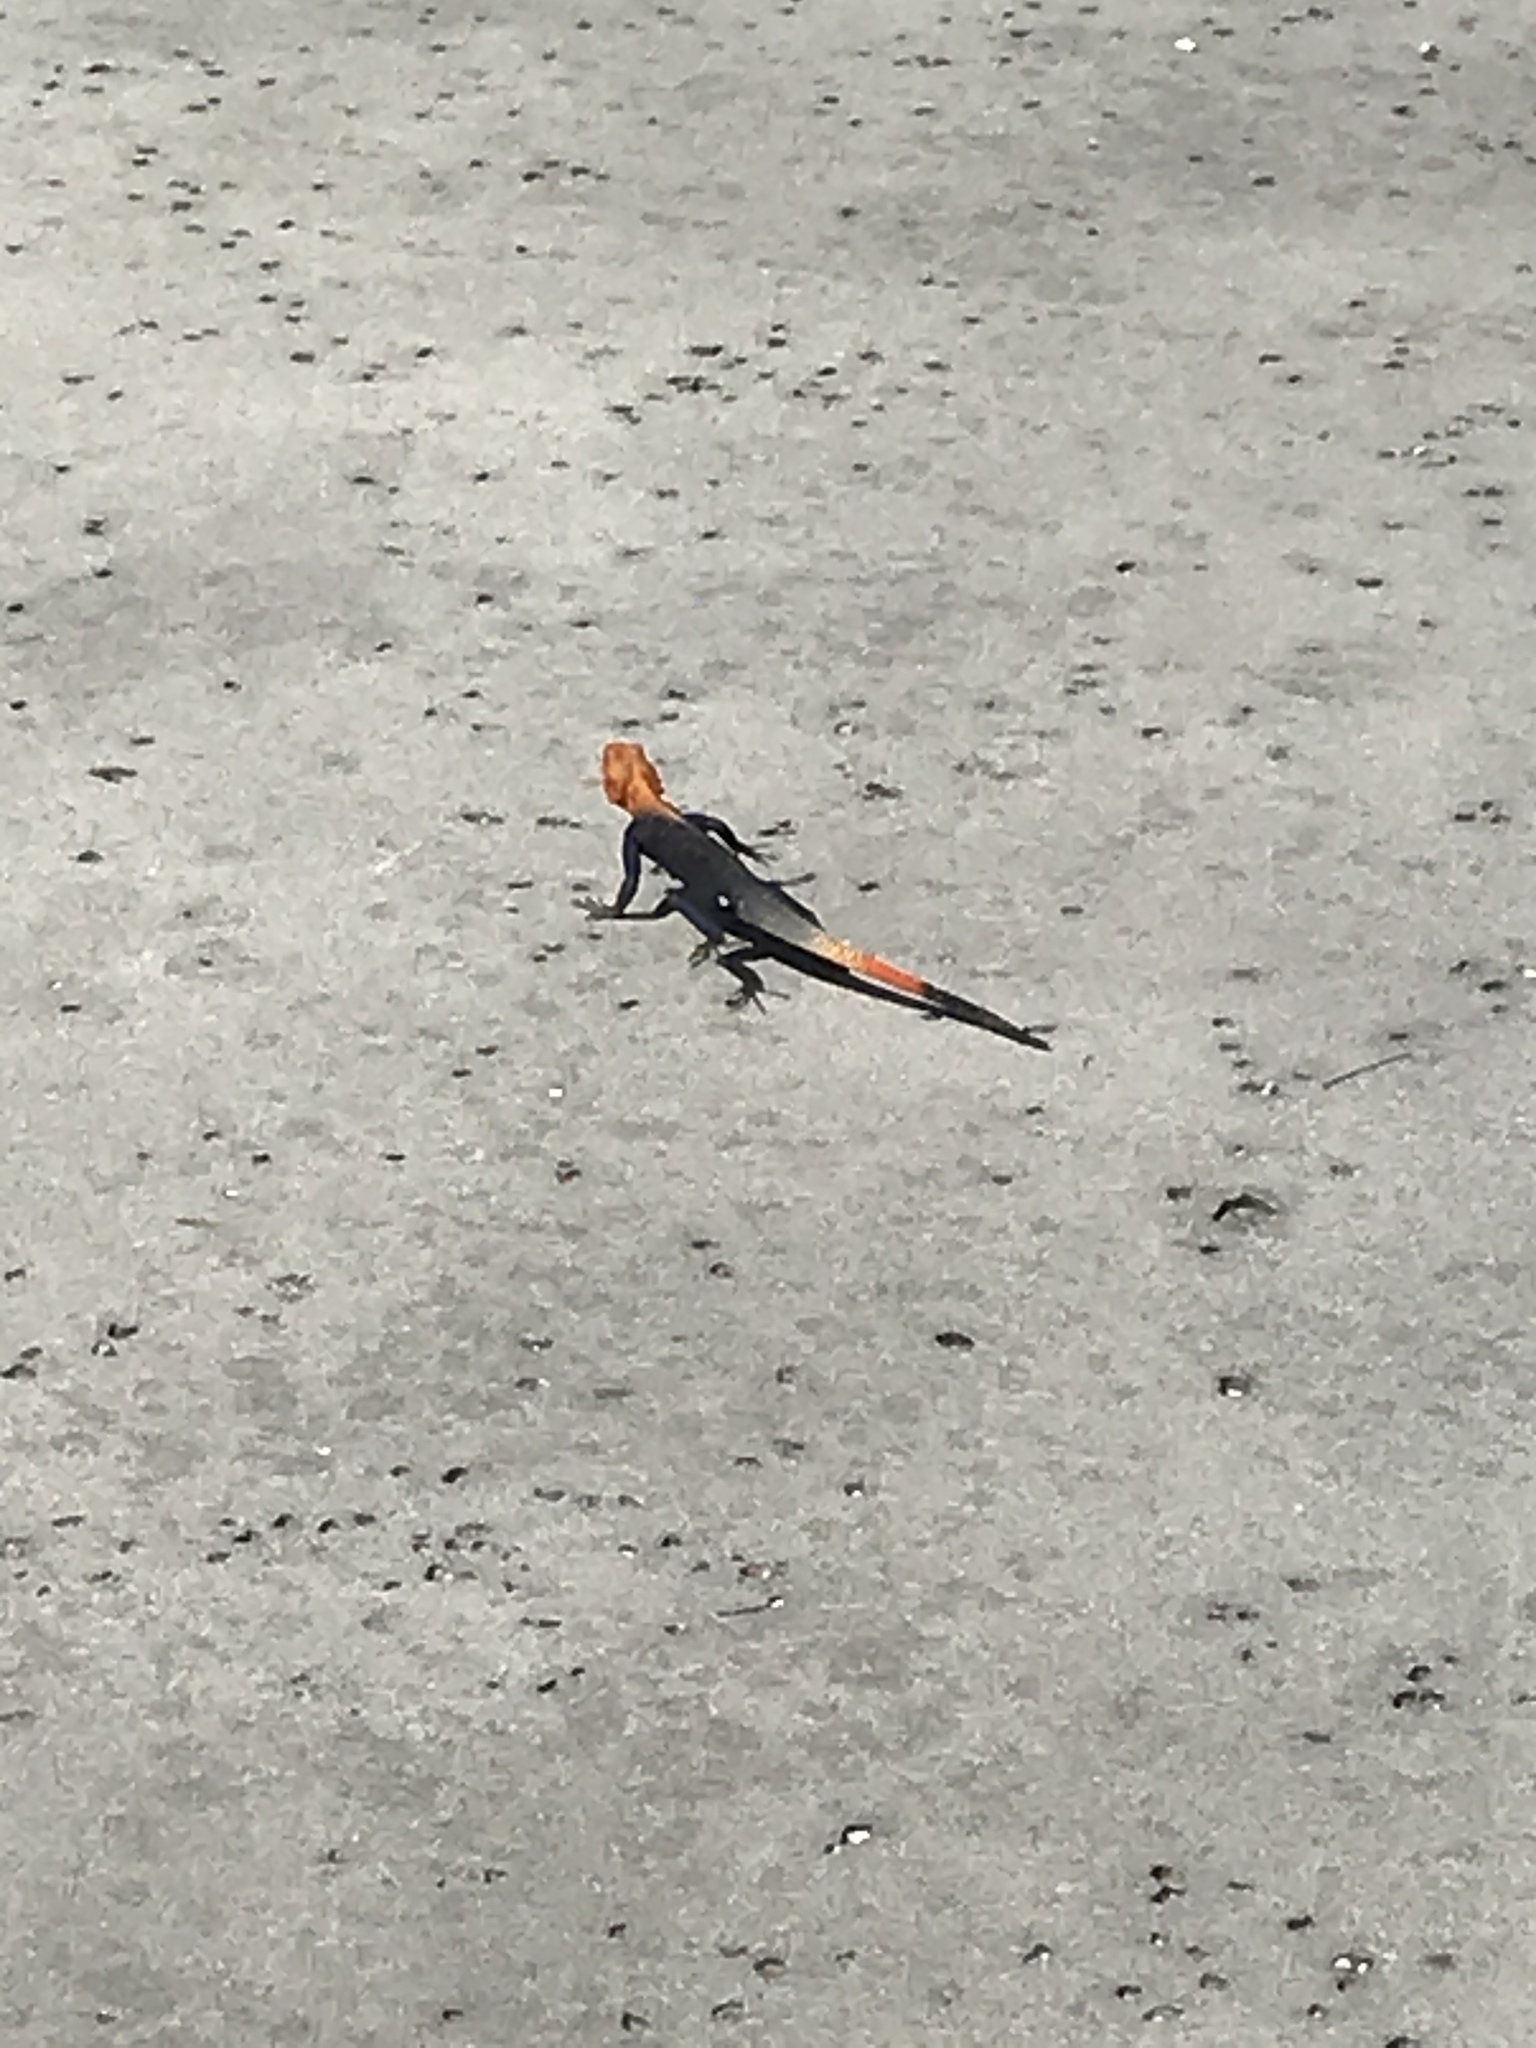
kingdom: Animalia
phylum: Chordata
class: Squamata
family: Agamidae
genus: Agama
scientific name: Agama picticauda
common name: Red-headed agama
